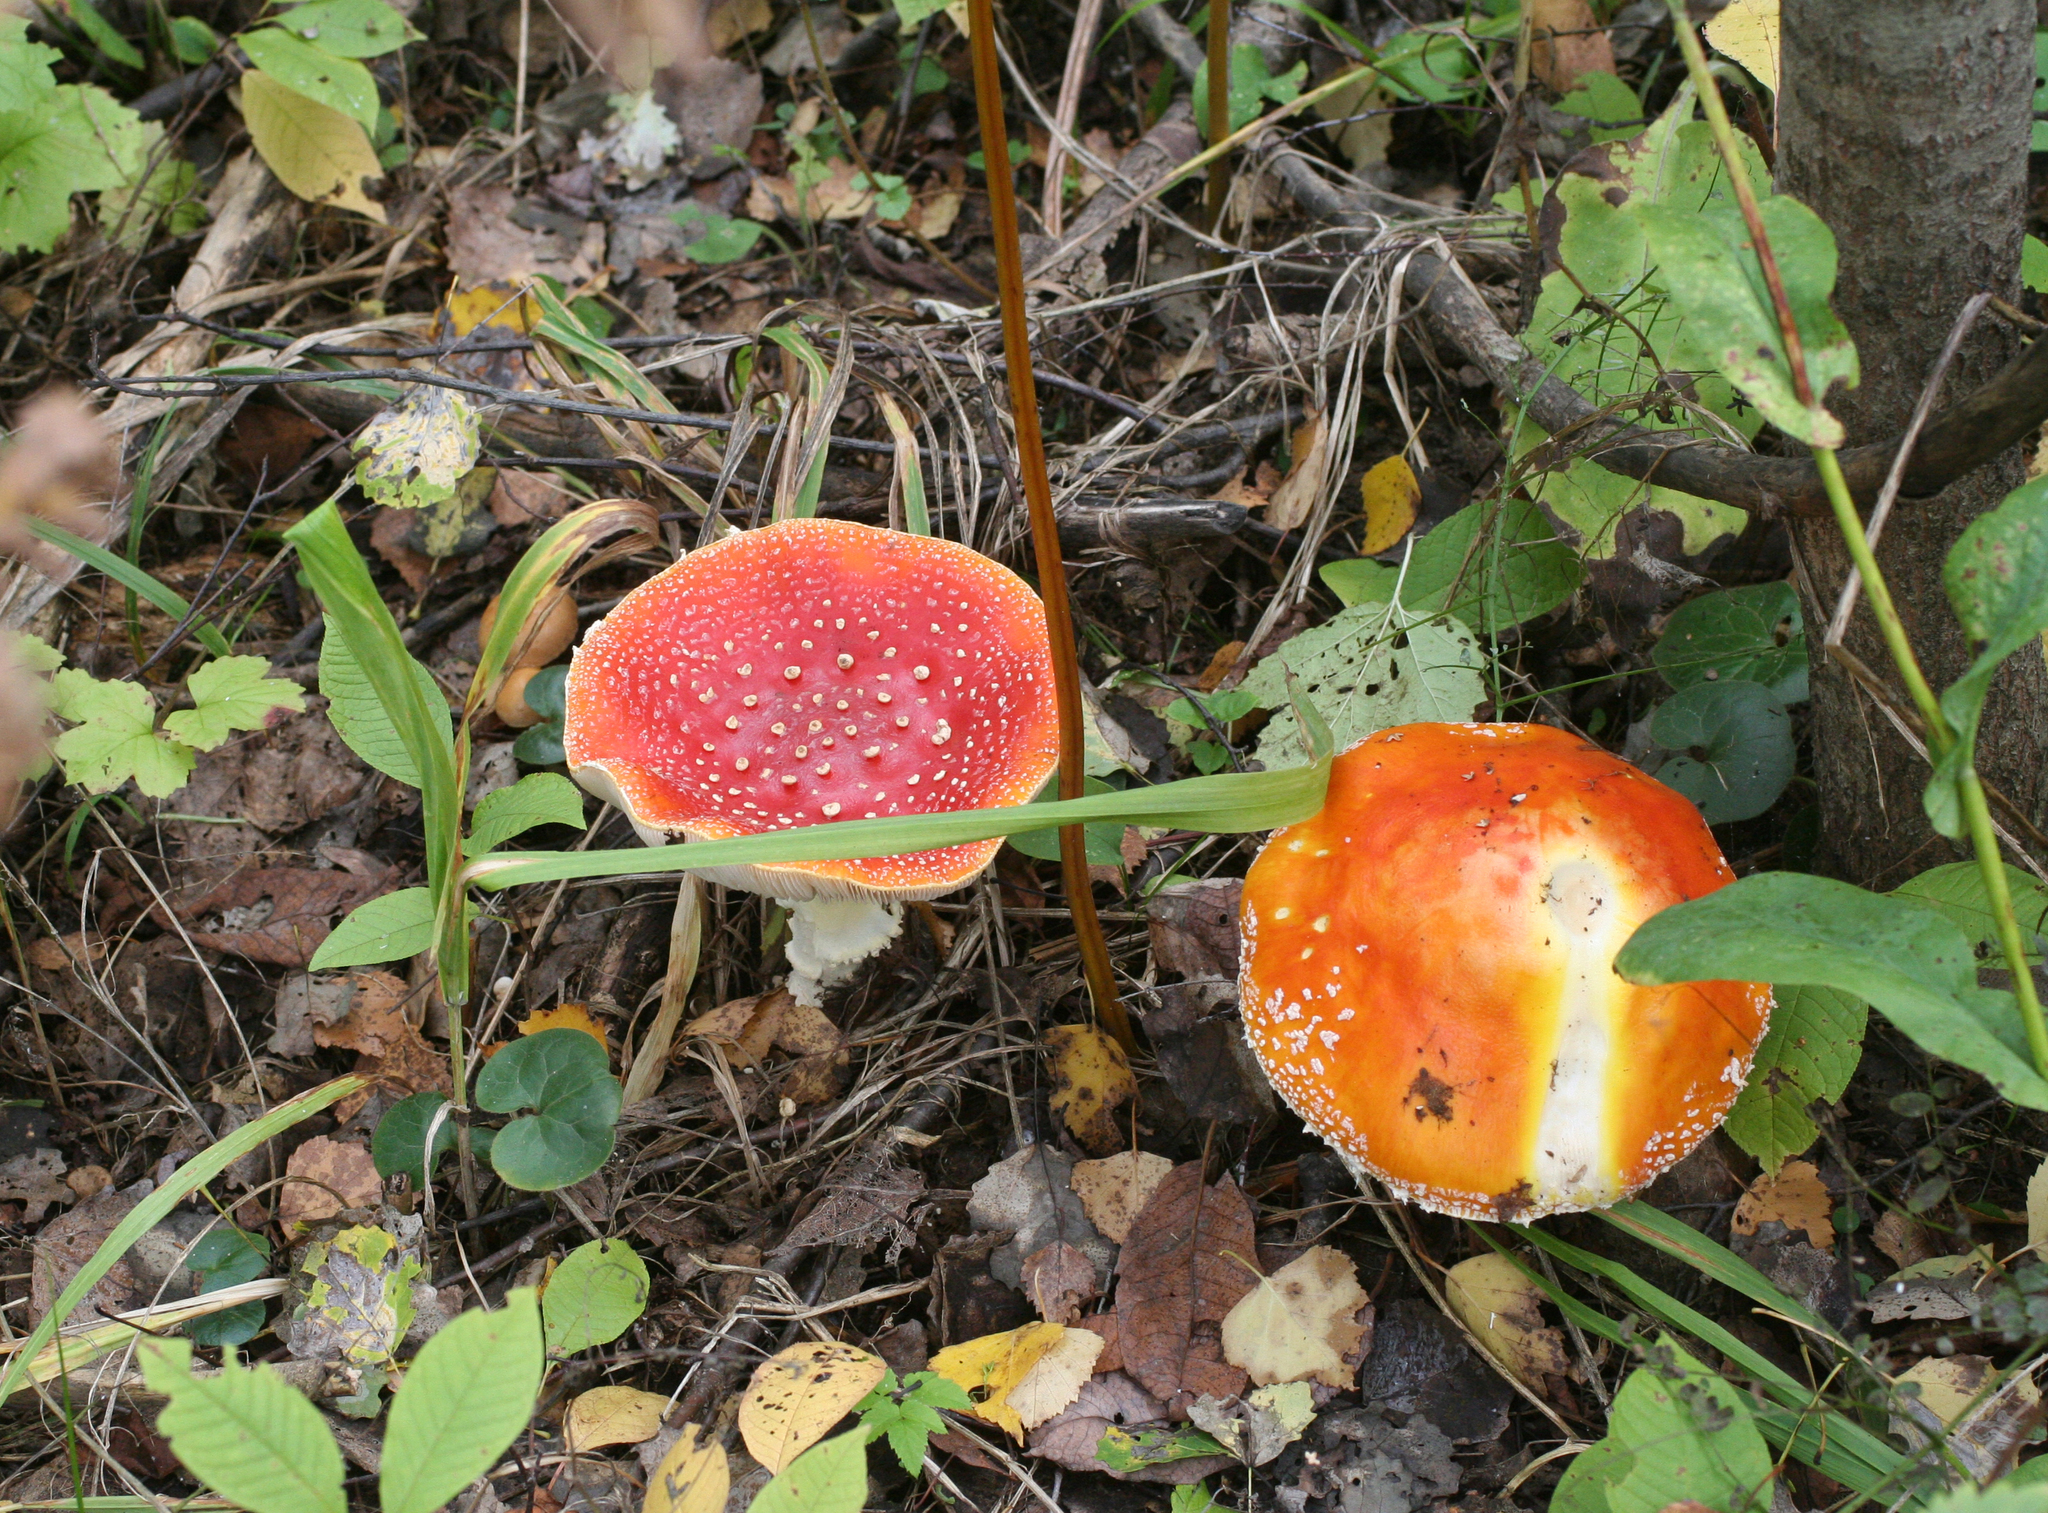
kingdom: Fungi
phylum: Basidiomycota
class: Agaricomycetes
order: Agaricales
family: Amanitaceae
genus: Amanita
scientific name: Amanita muscaria
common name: Fly agaric
